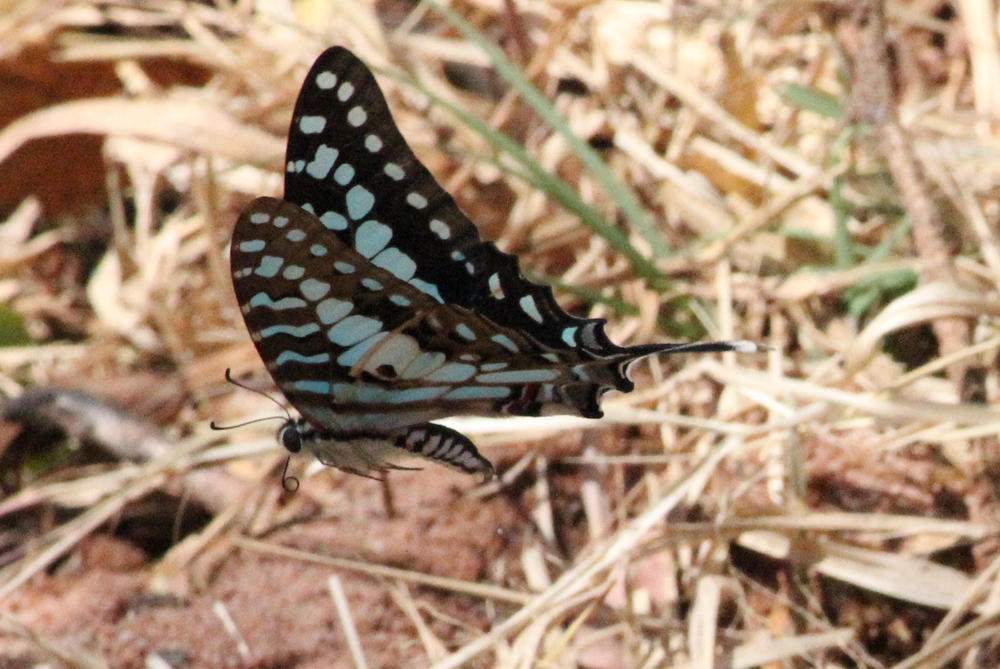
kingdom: Animalia
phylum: Arthropoda
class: Insecta
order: Lepidoptera
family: Papilionidae
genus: Graphium
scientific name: Graphium antheus
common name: Large striped swordtail
